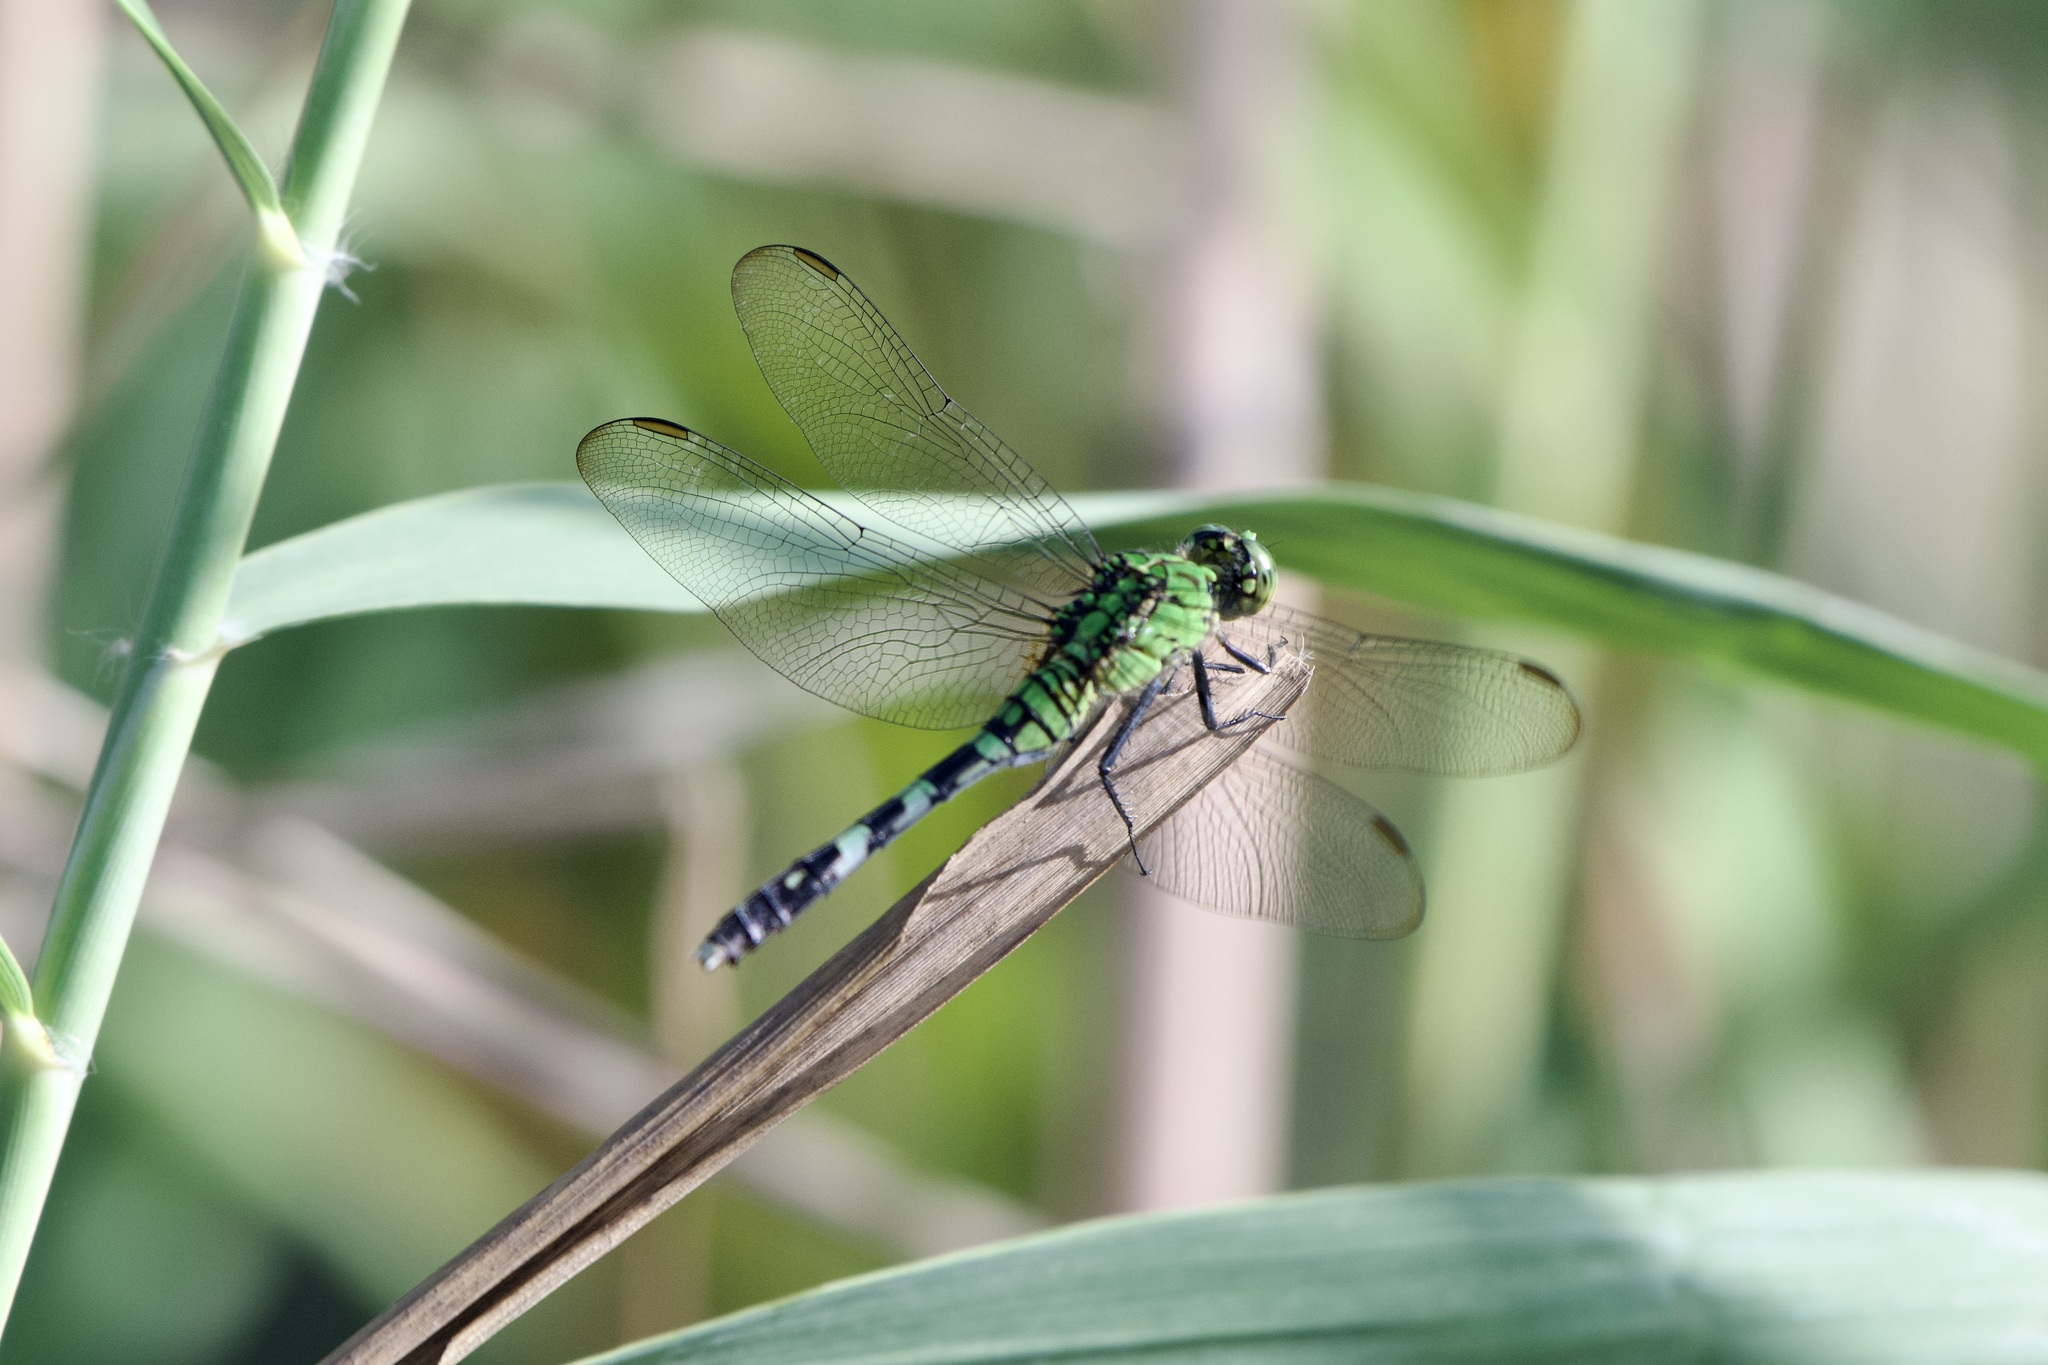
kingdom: Animalia
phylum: Arthropoda
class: Insecta
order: Odonata
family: Libellulidae
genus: Erythemis
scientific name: Erythemis simplicicollis
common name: Eastern pondhawk
